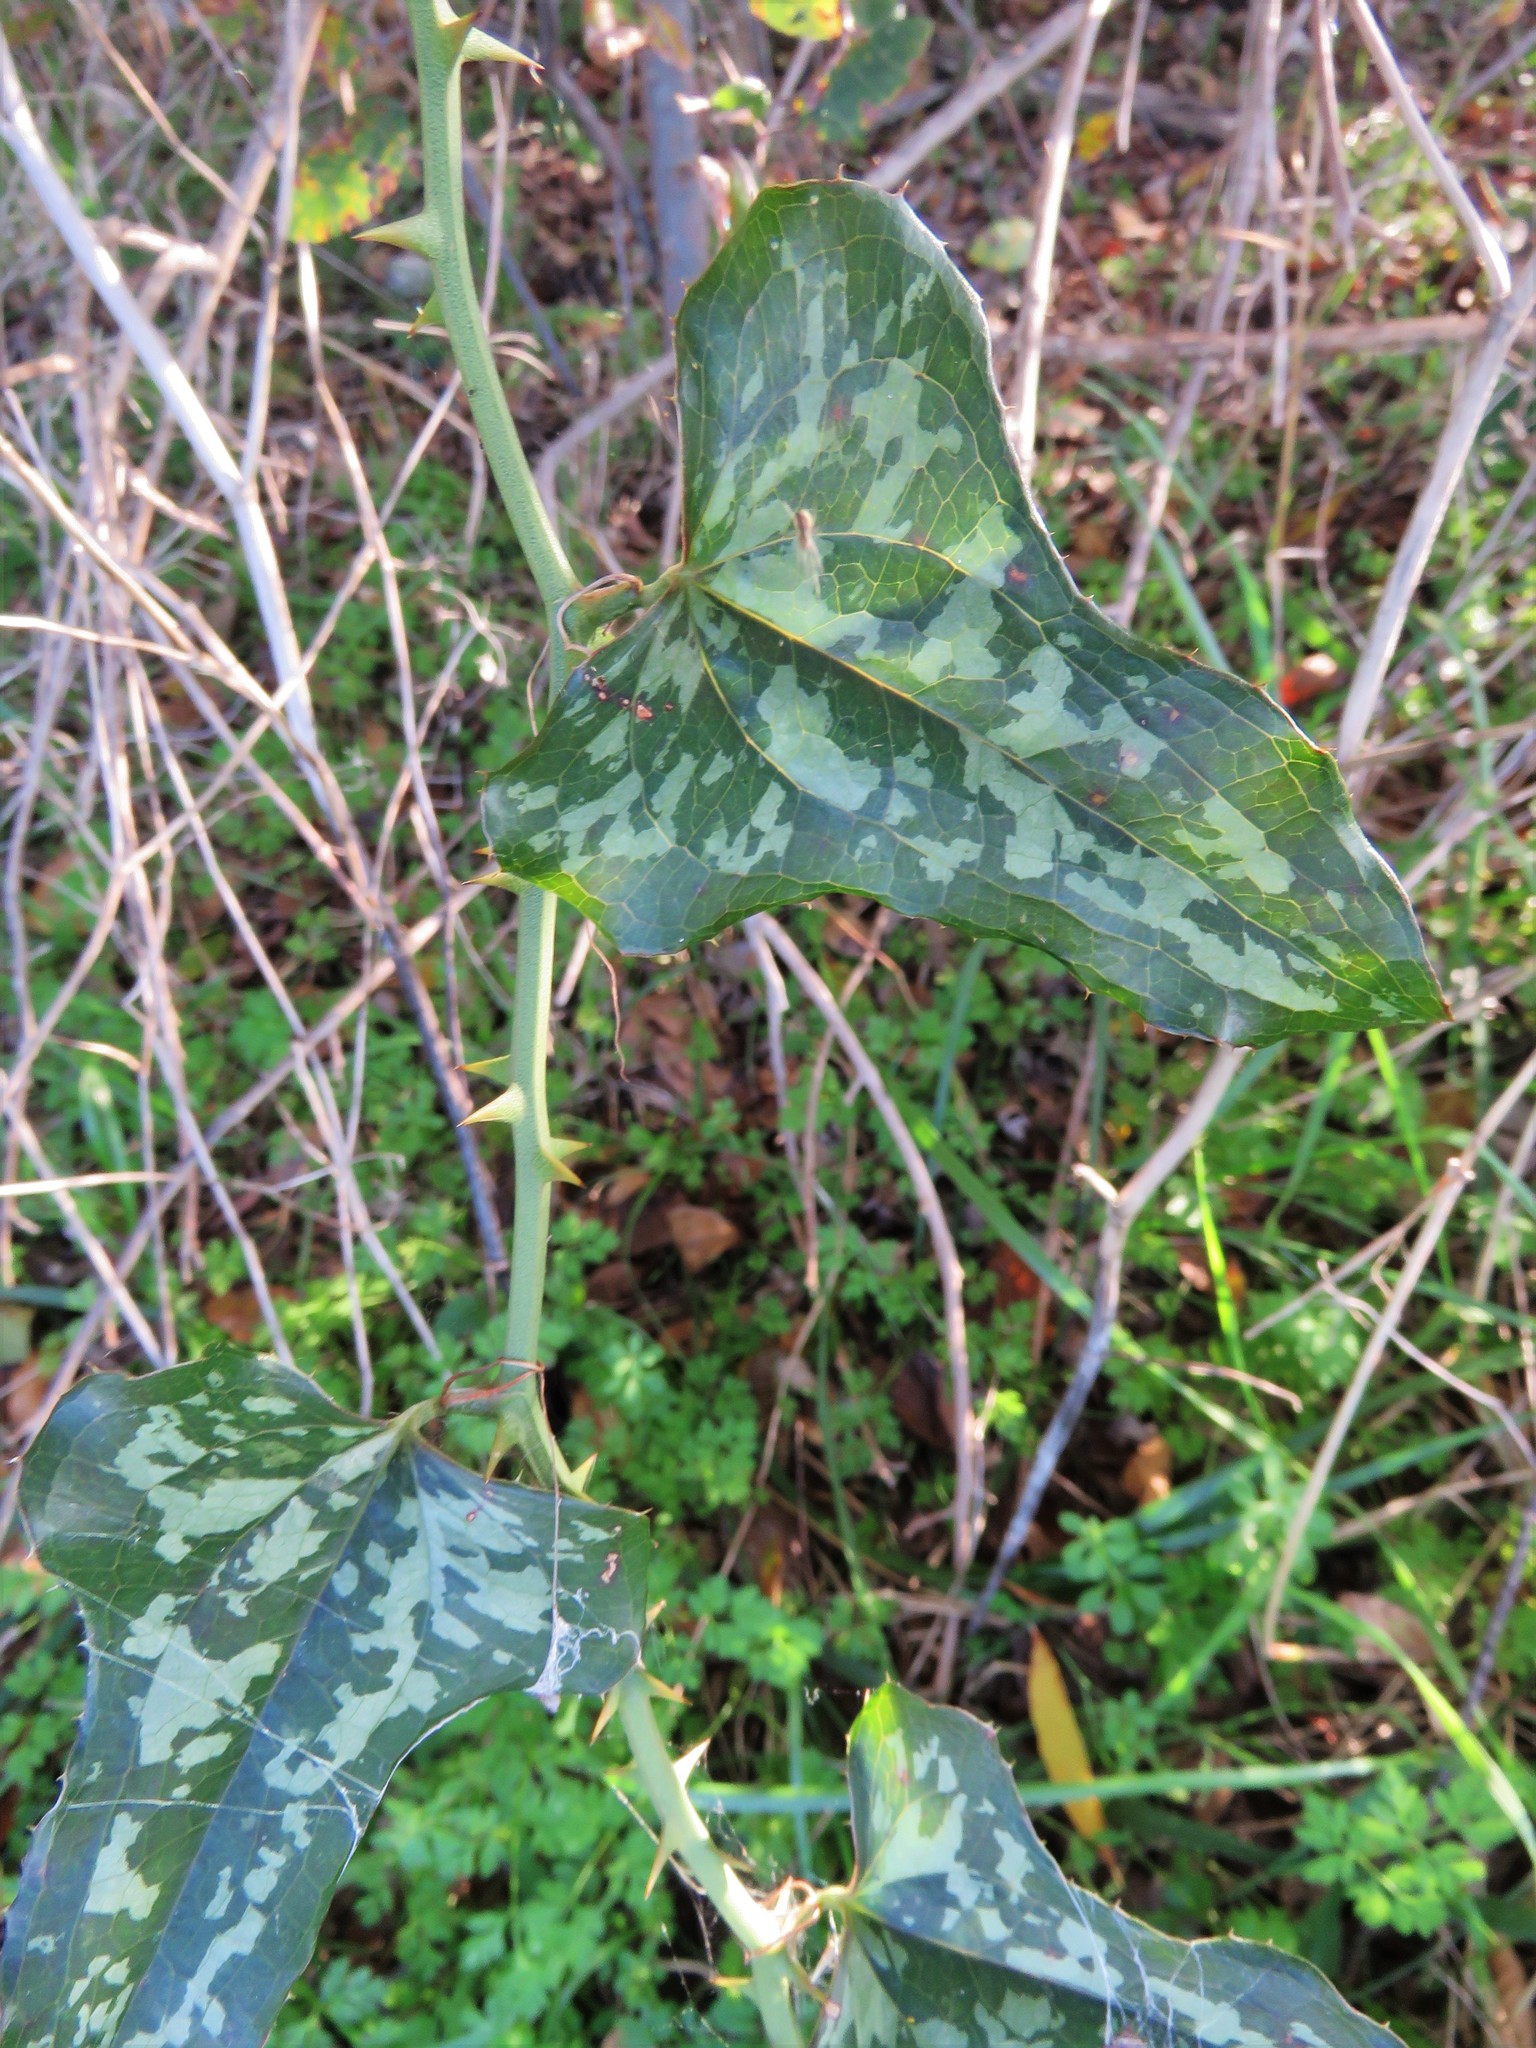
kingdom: Plantae
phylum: Tracheophyta
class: Liliopsida
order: Liliales
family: Smilacaceae
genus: Smilax
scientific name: Smilax bona-nox
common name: Catbrier
